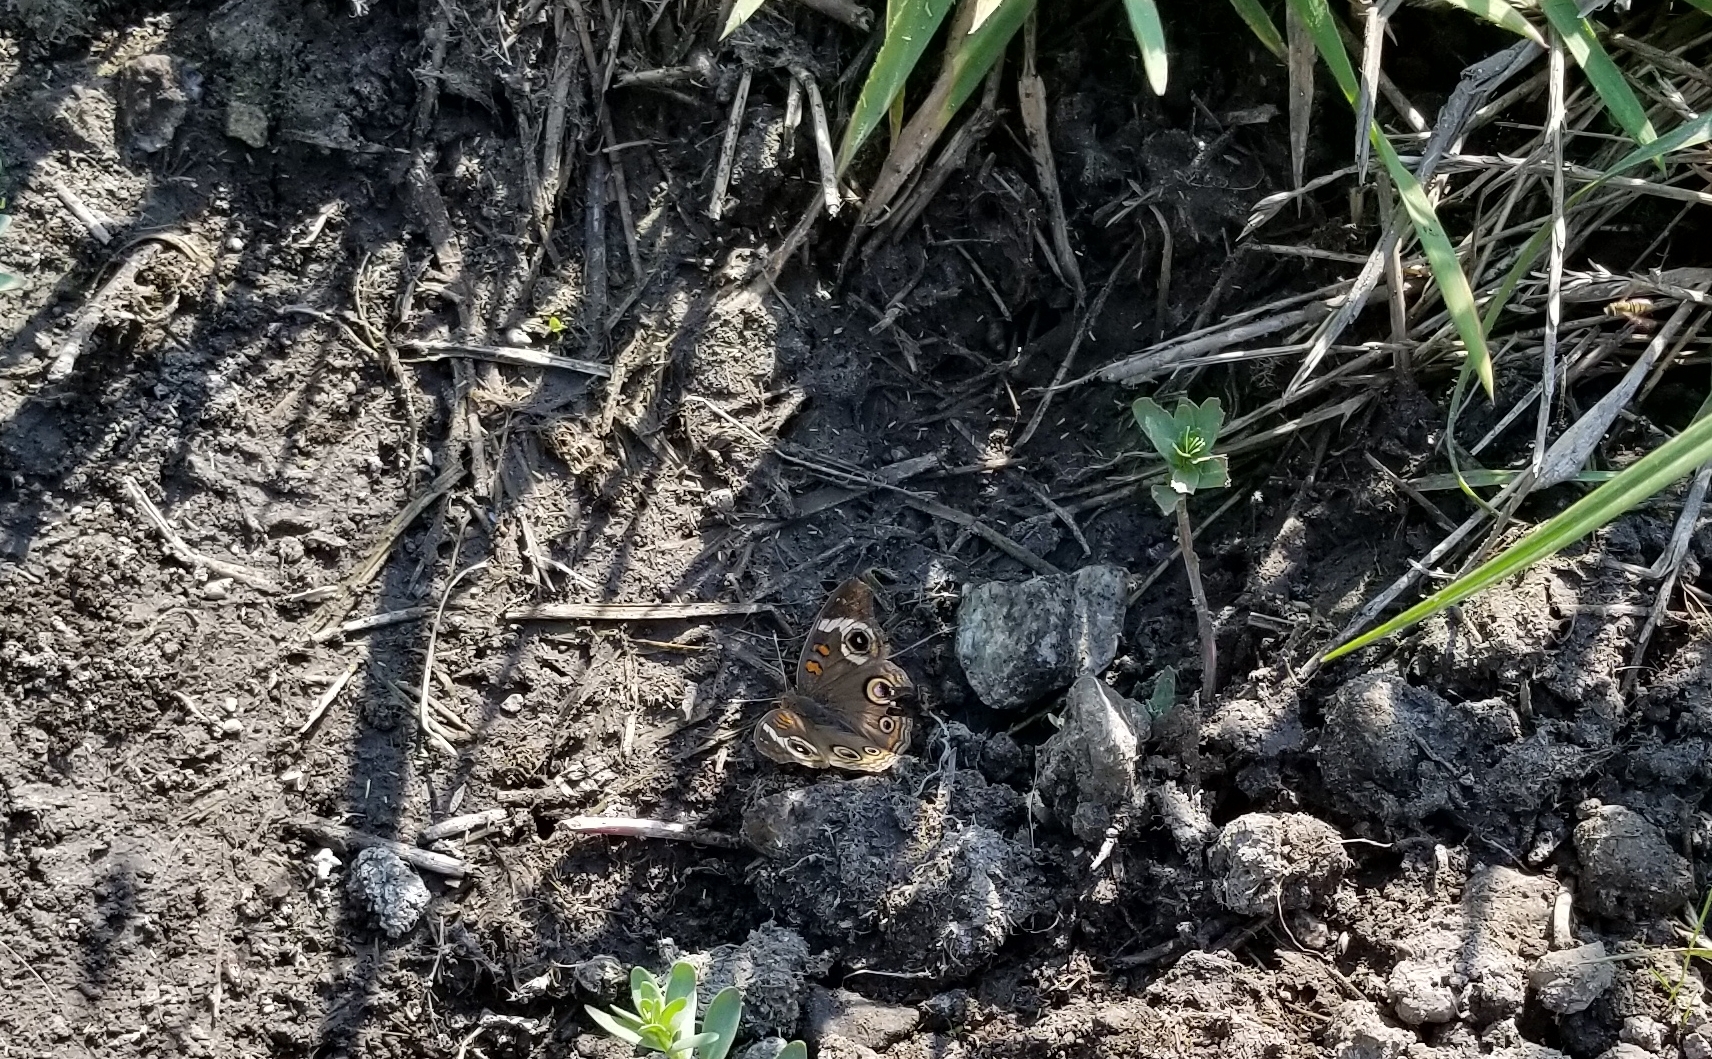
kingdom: Animalia
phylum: Arthropoda
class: Insecta
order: Lepidoptera
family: Nymphalidae
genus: Junonia
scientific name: Junonia grisea
